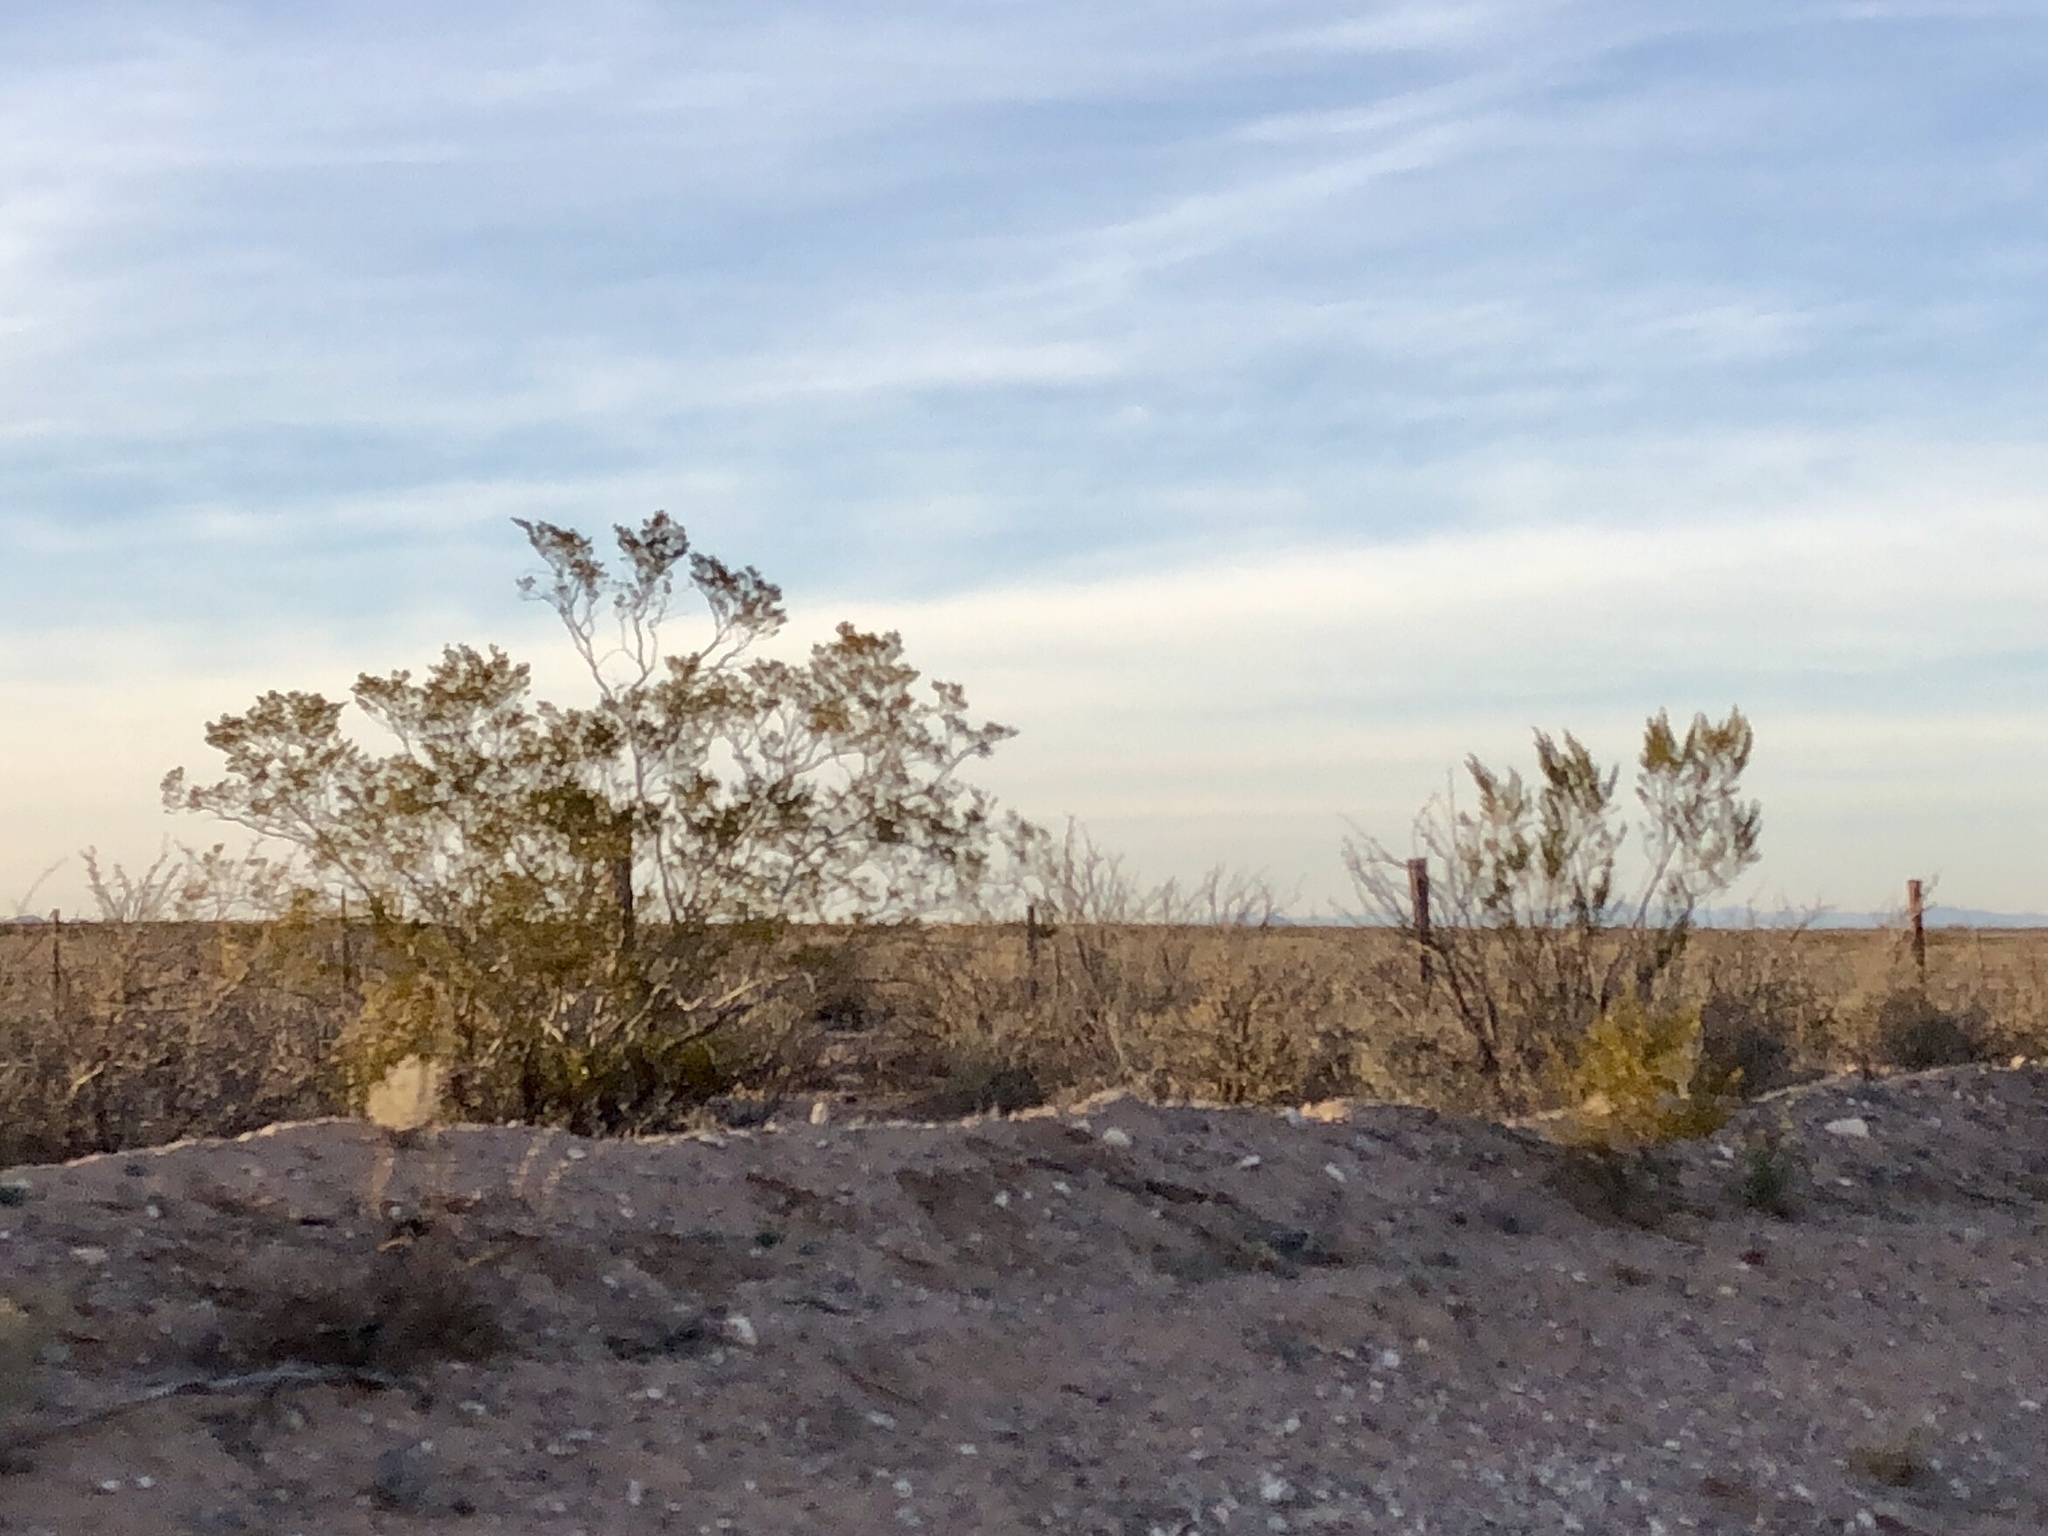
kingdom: Plantae
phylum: Tracheophyta
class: Magnoliopsida
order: Zygophyllales
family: Zygophyllaceae
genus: Larrea
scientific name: Larrea tridentata
